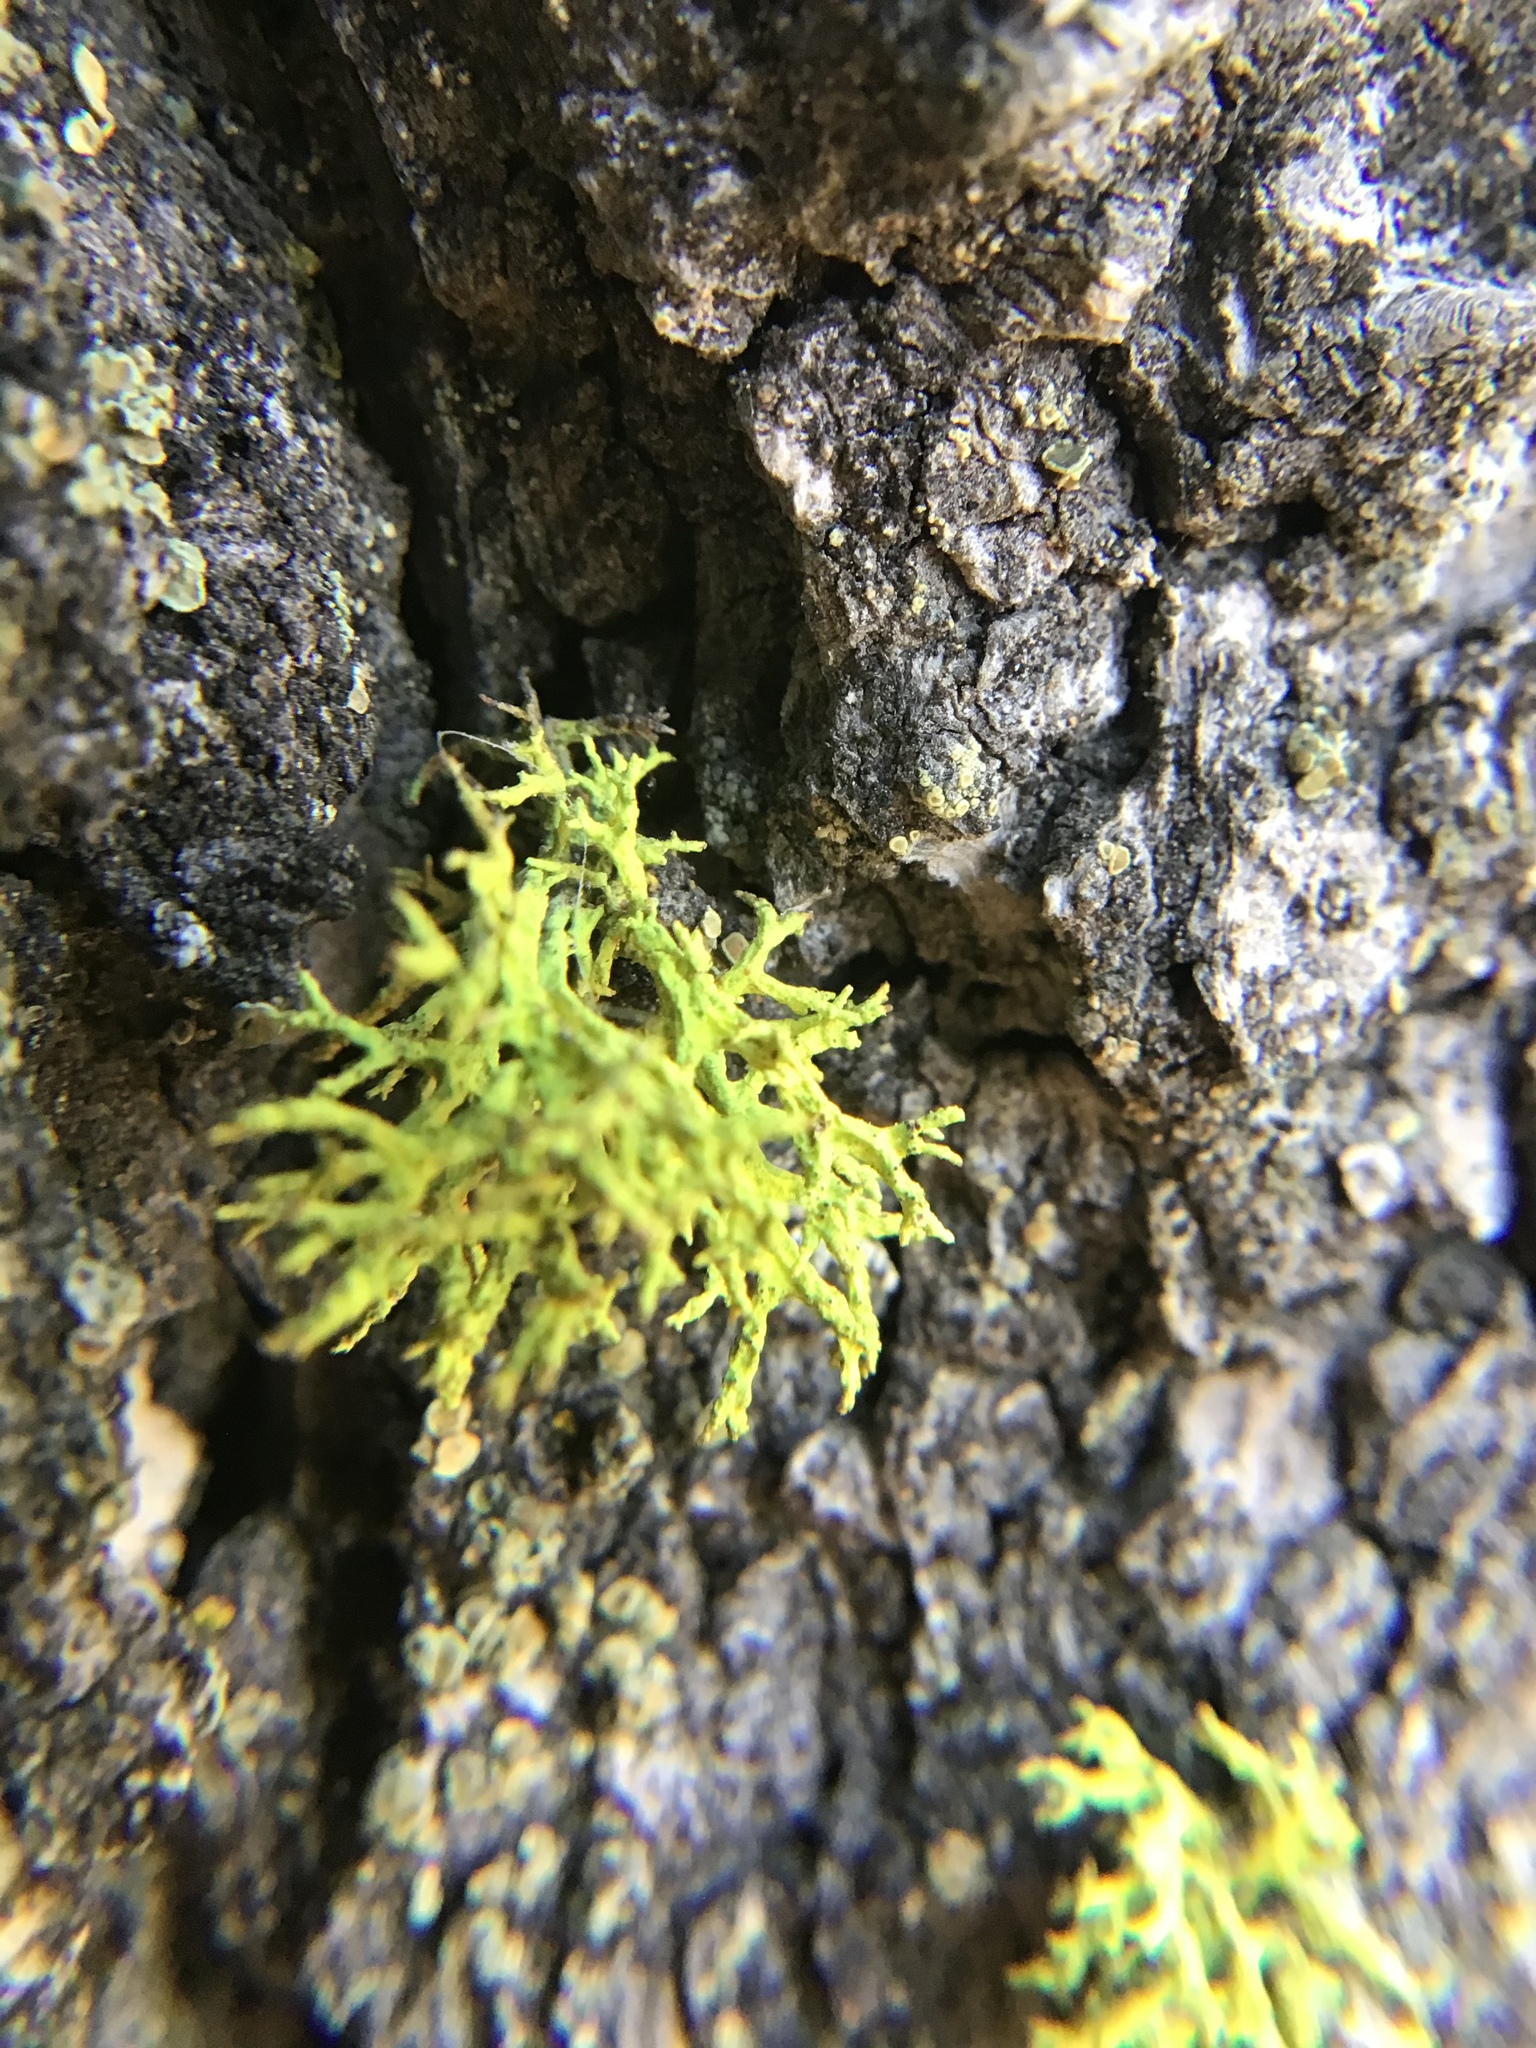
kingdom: Fungi
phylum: Ascomycota
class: Lecanoromycetes
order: Lecanorales
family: Parmeliaceae
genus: Letharia
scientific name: Letharia vulpina
